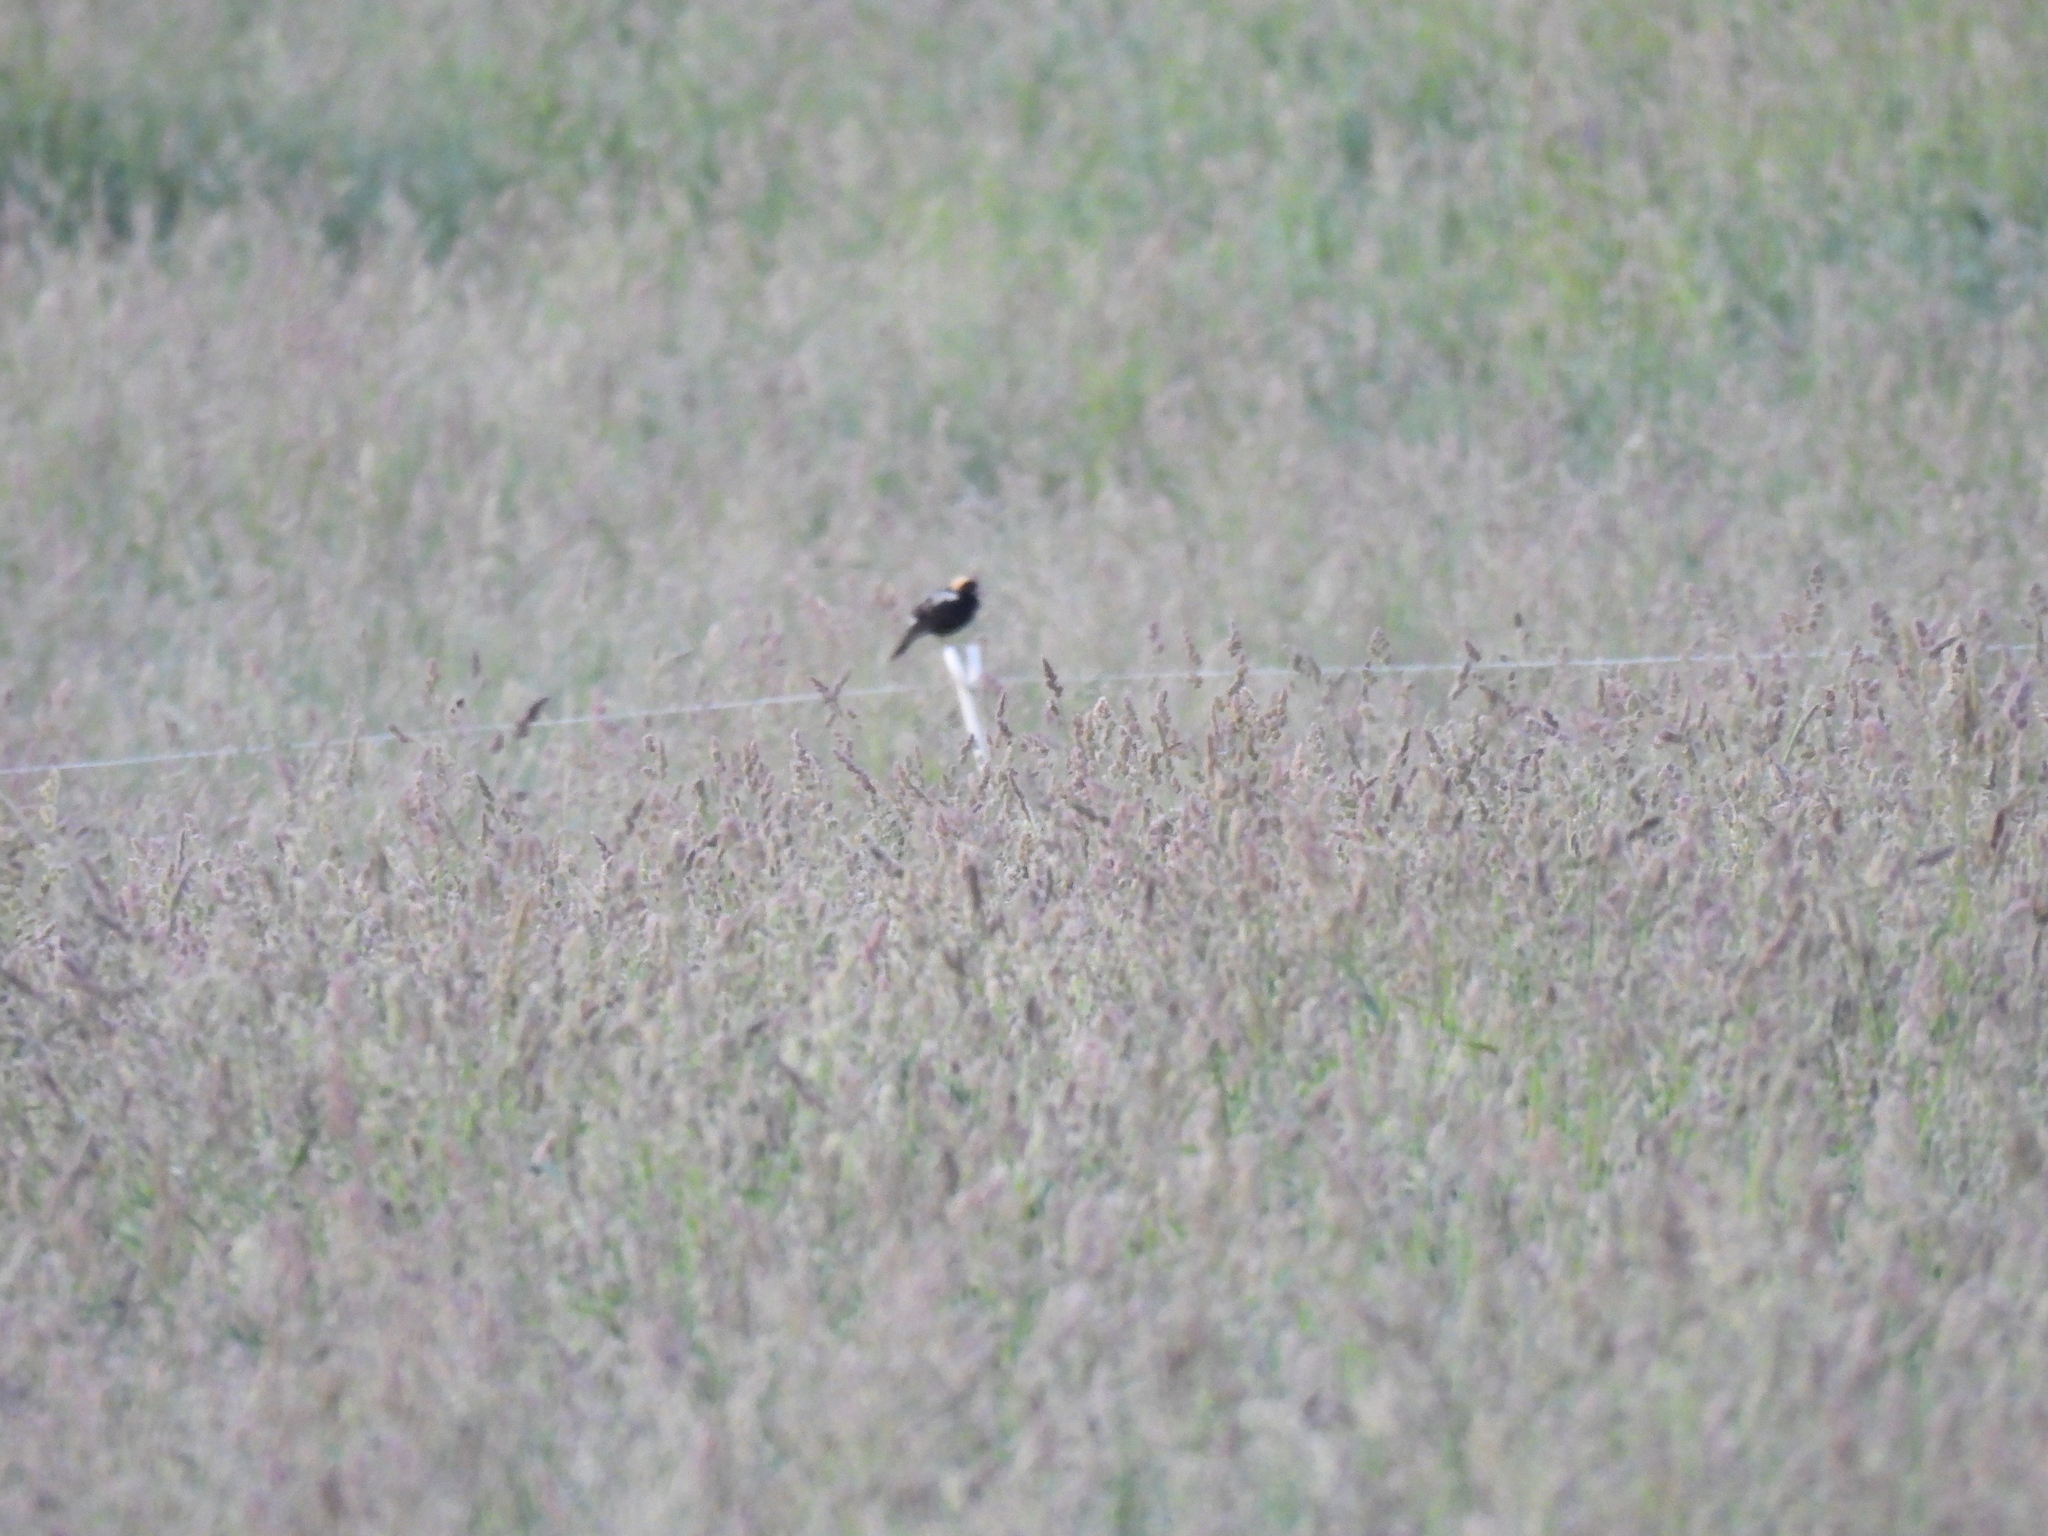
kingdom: Animalia
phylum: Chordata
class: Aves
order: Passeriformes
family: Icteridae
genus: Dolichonyx
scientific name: Dolichonyx oryzivorus
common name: Bobolink
